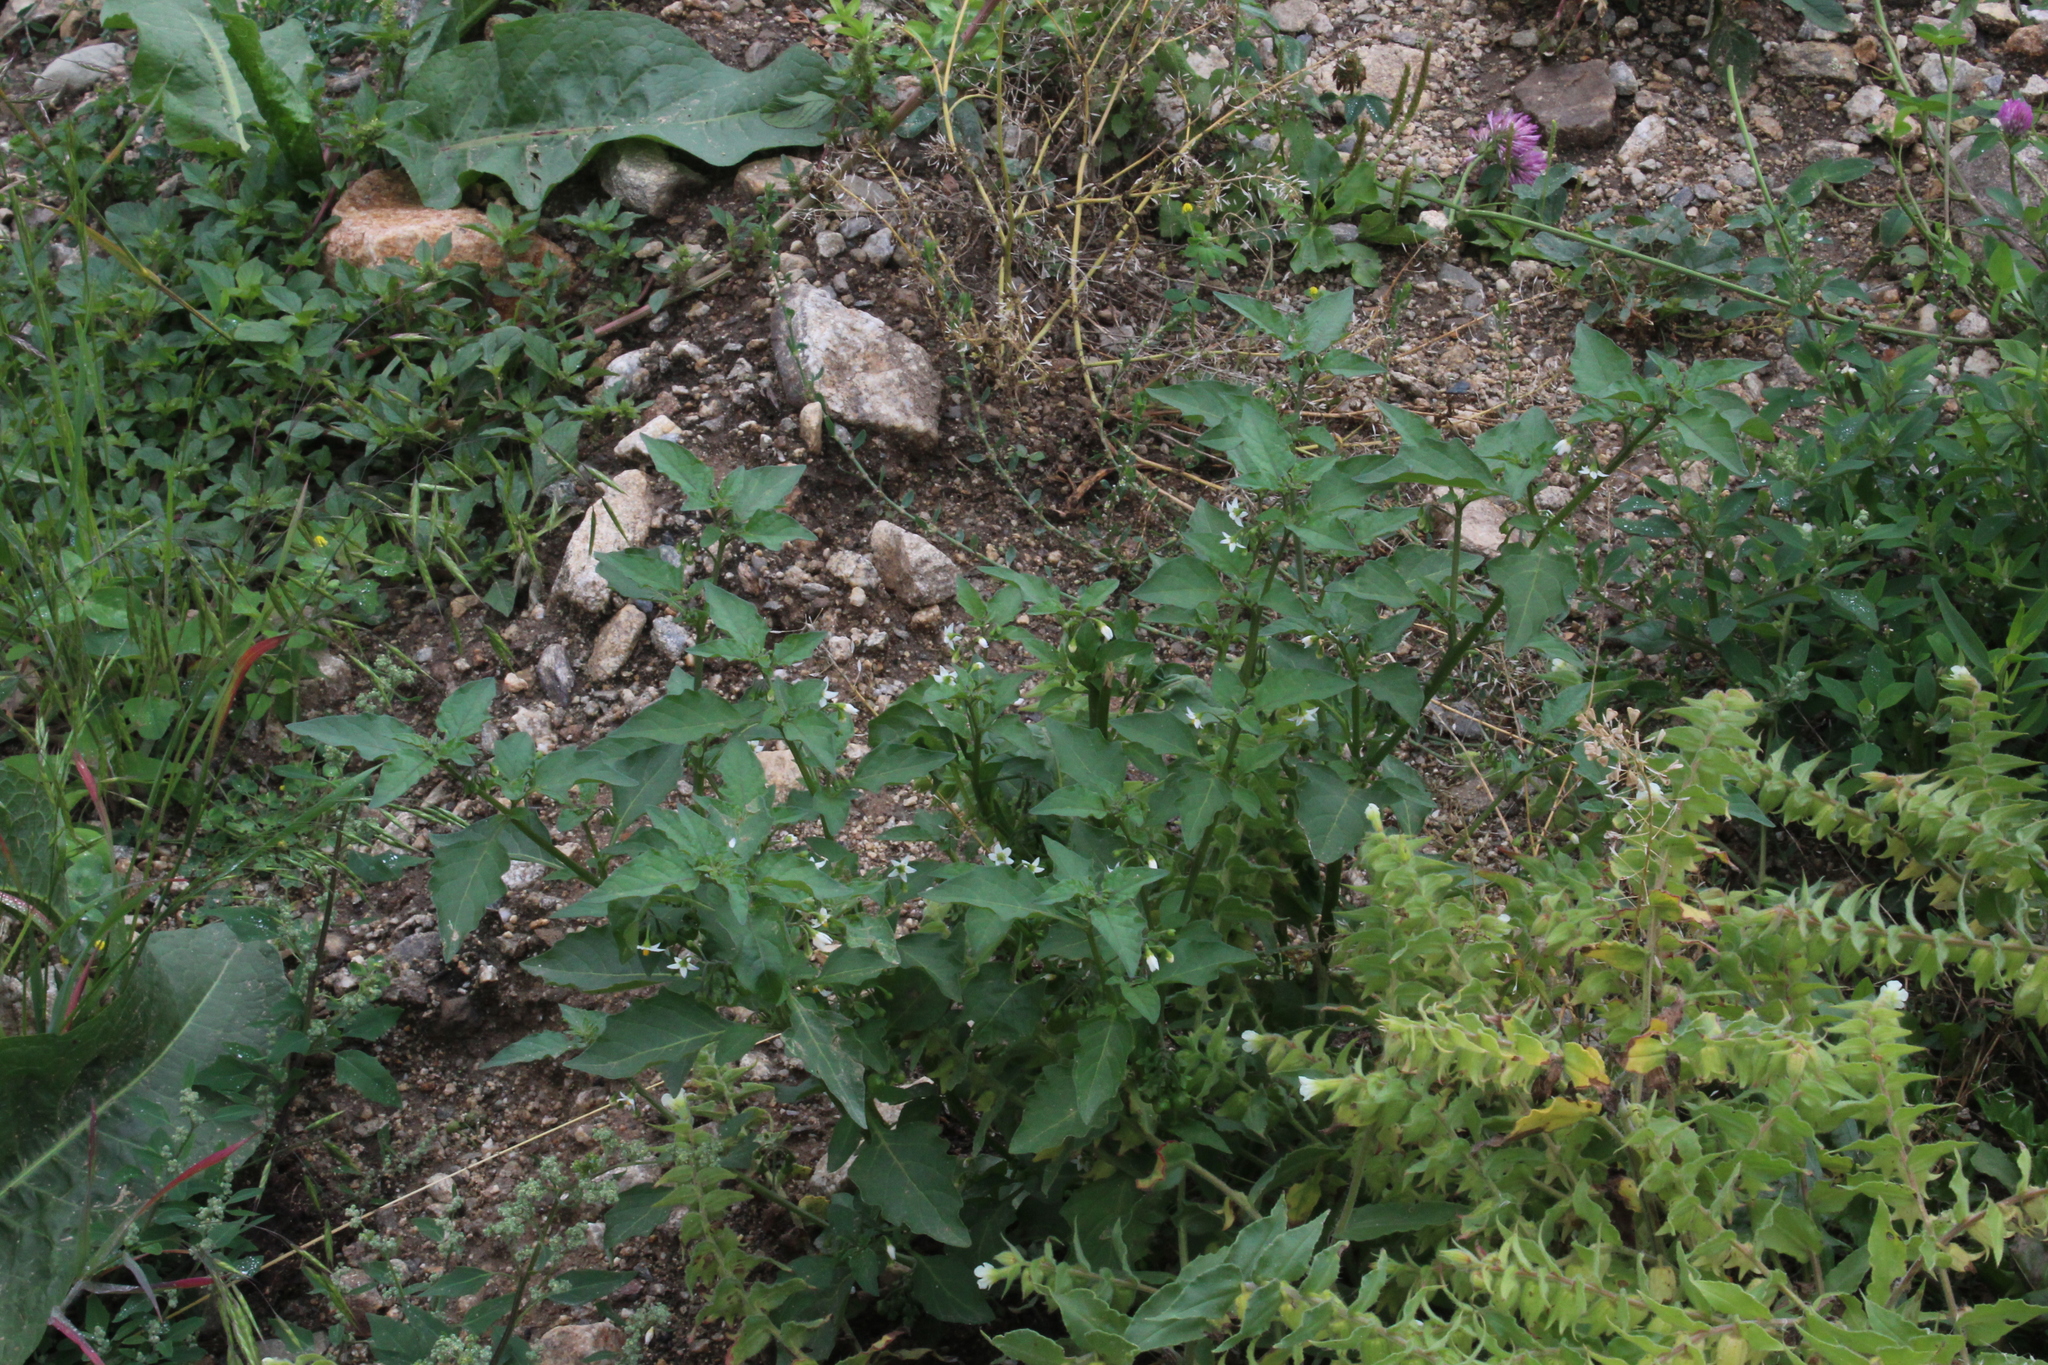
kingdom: Plantae
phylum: Tracheophyta
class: Magnoliopsida
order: Solanales
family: Solanaceae
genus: Solanum
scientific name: Solanum nigrum
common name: Black nightshade
